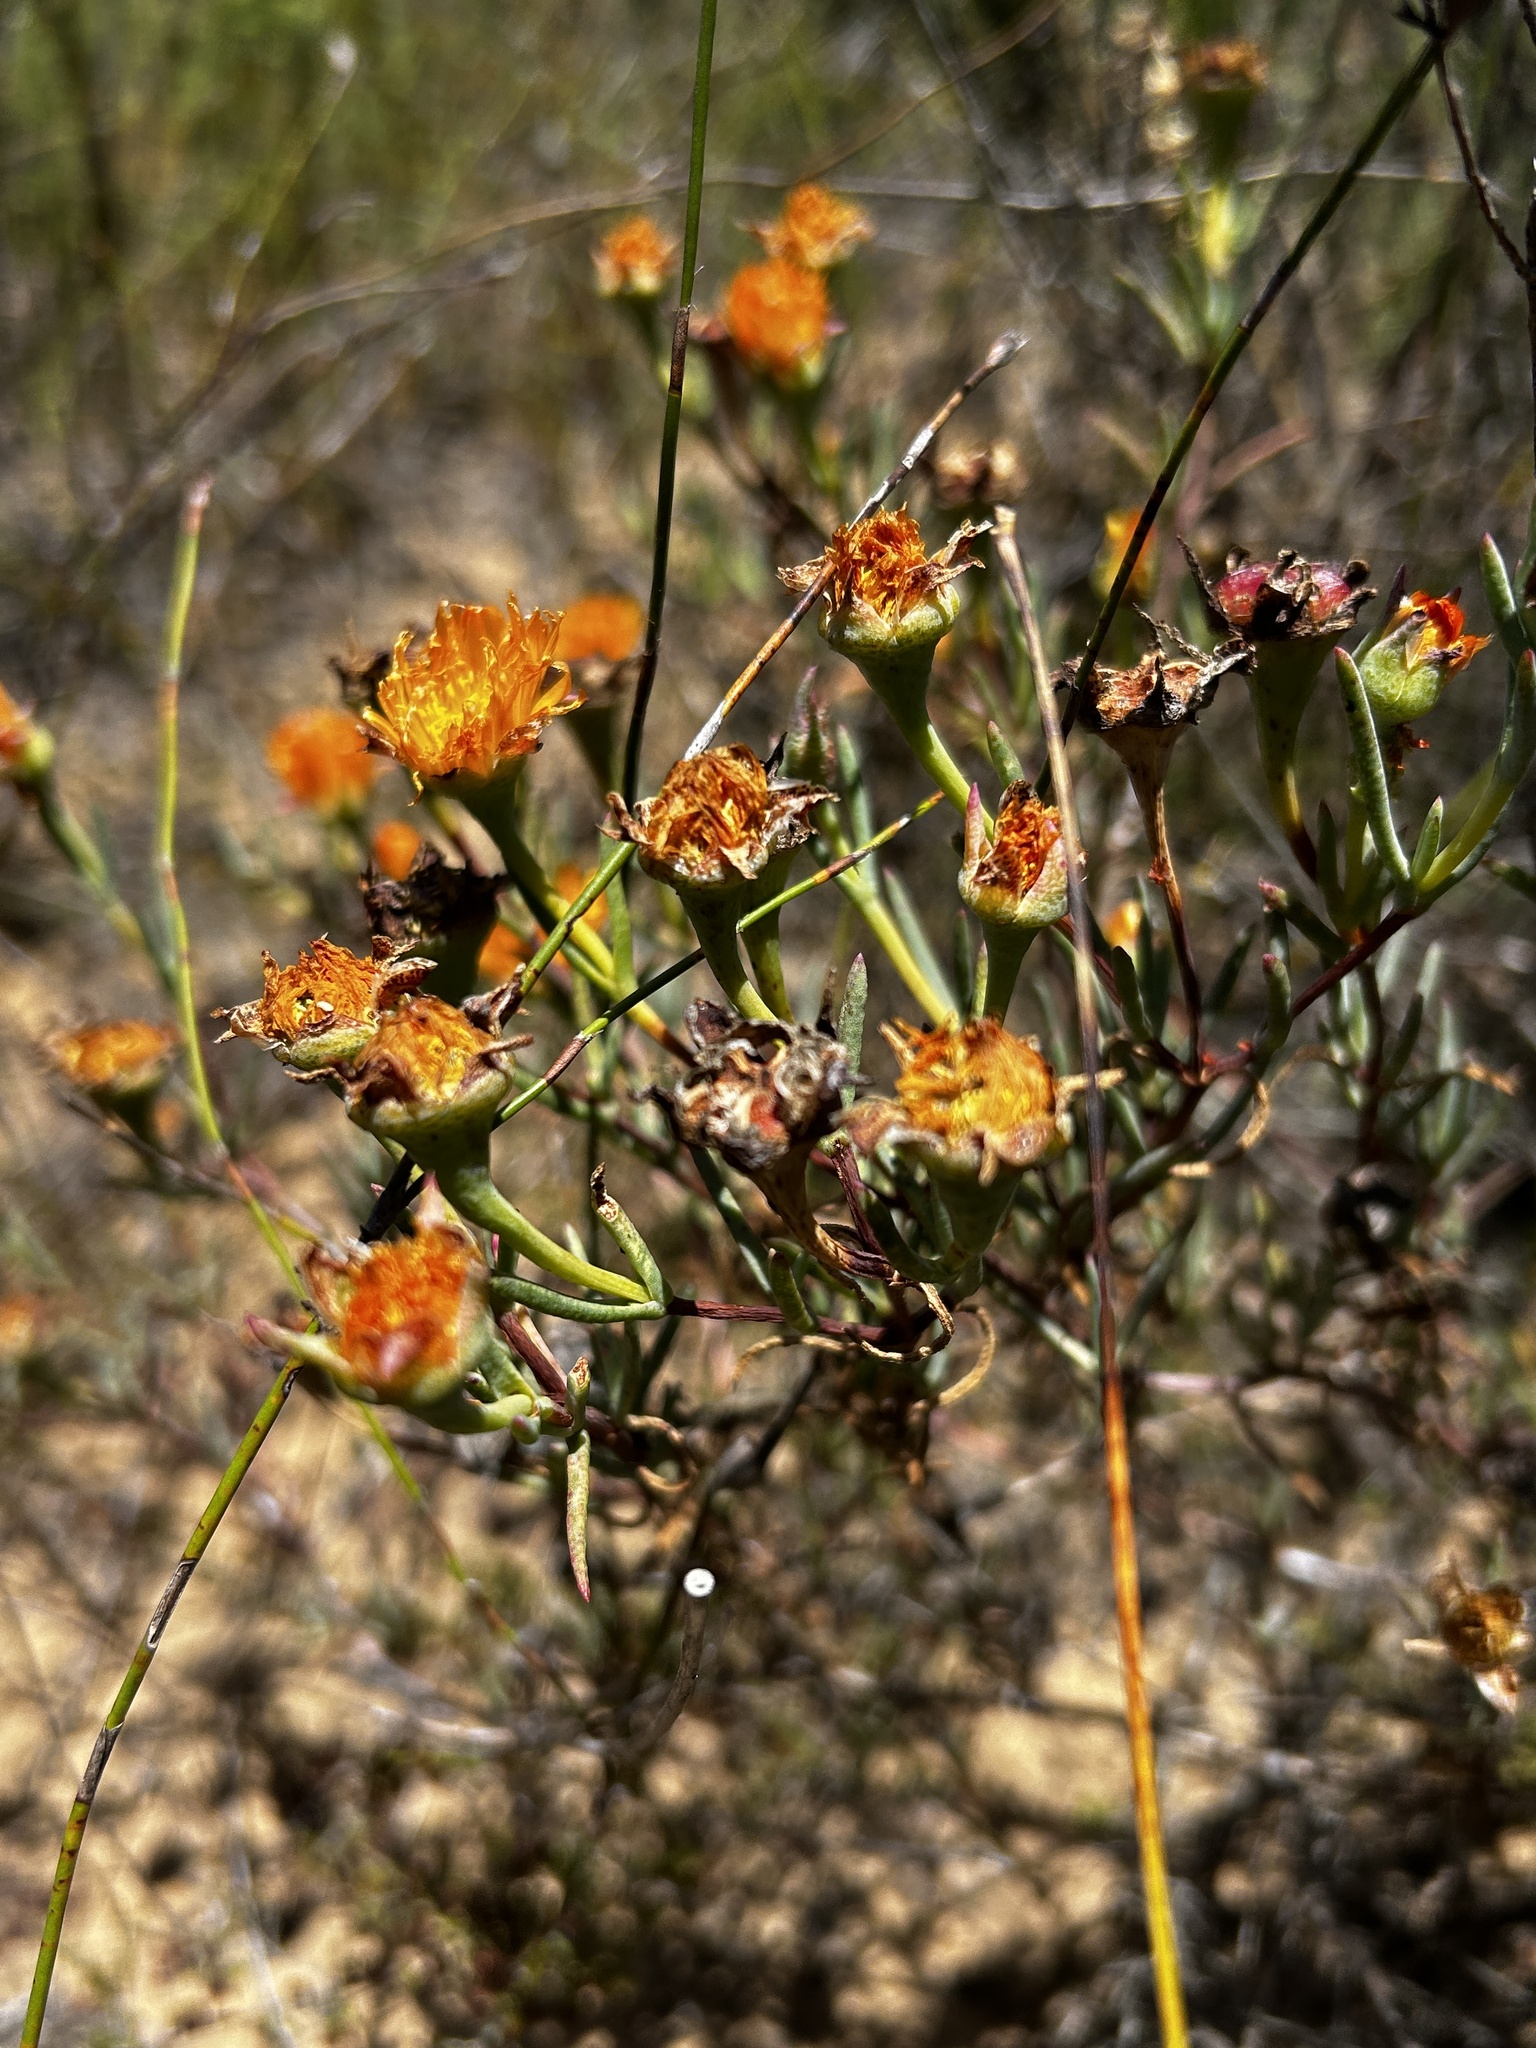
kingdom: Plantae
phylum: Tracheophyta
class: Magnoliopsida
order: Caryophyllales
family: Aizoaceae
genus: Lampranthus
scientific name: Lampranthus fergusoniae
